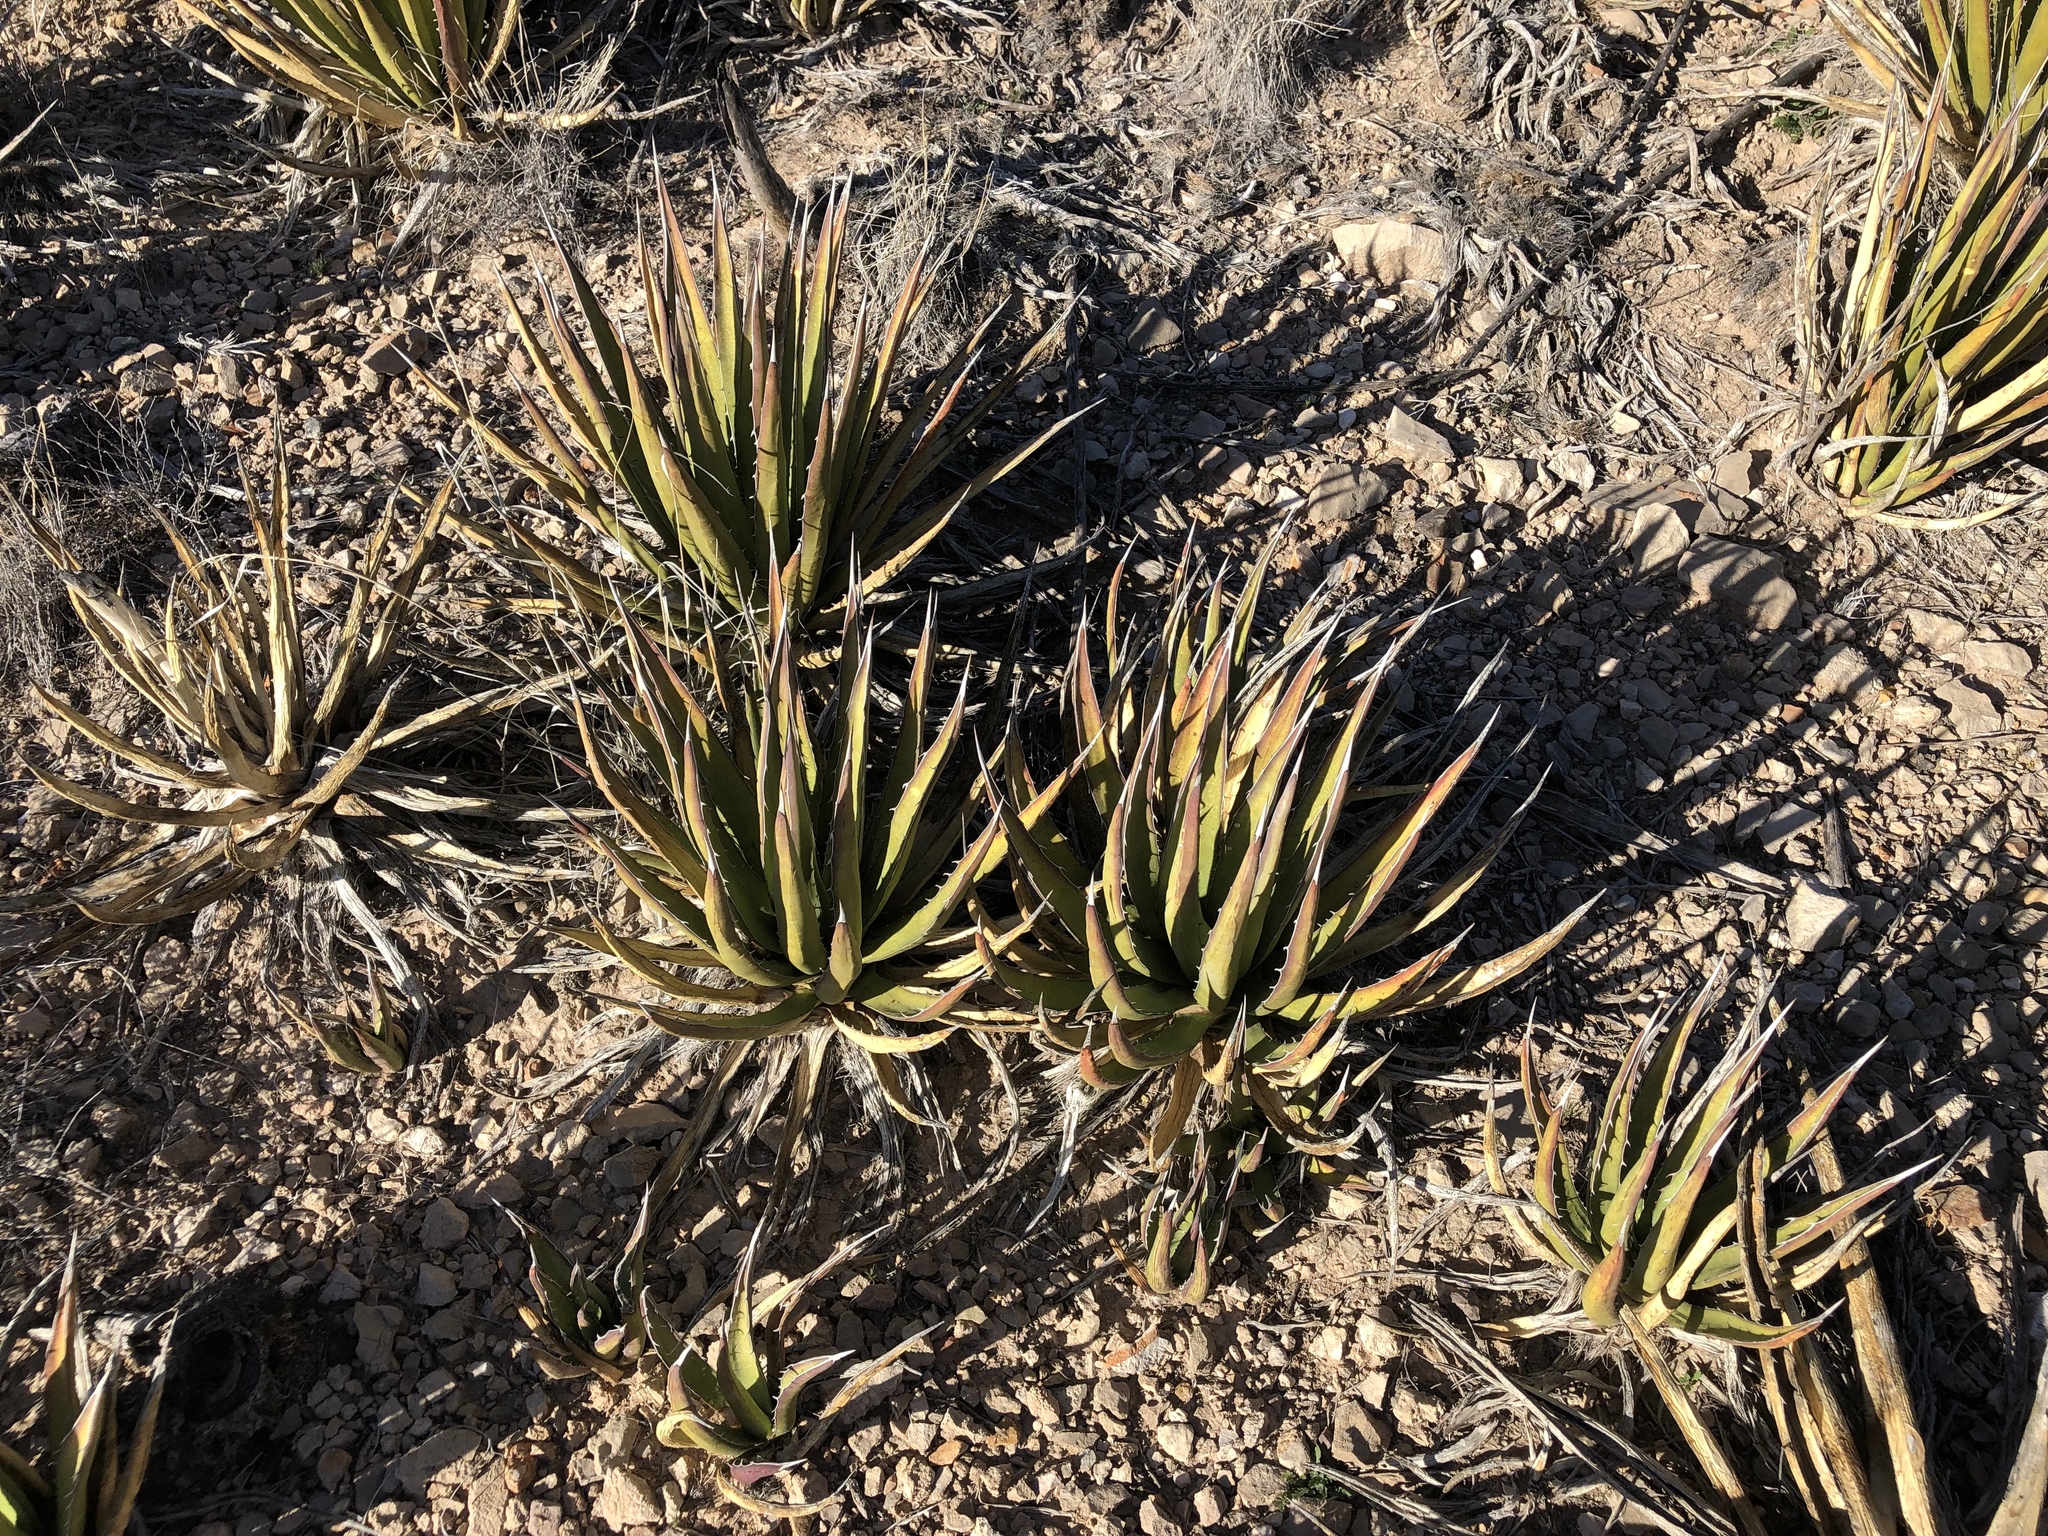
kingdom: Plantae
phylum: Tracheophyta
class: Liliopsida
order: Asparagales
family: Asparagaceae
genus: Agave
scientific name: Agave lechuguilla
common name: Lecheguilla agave
